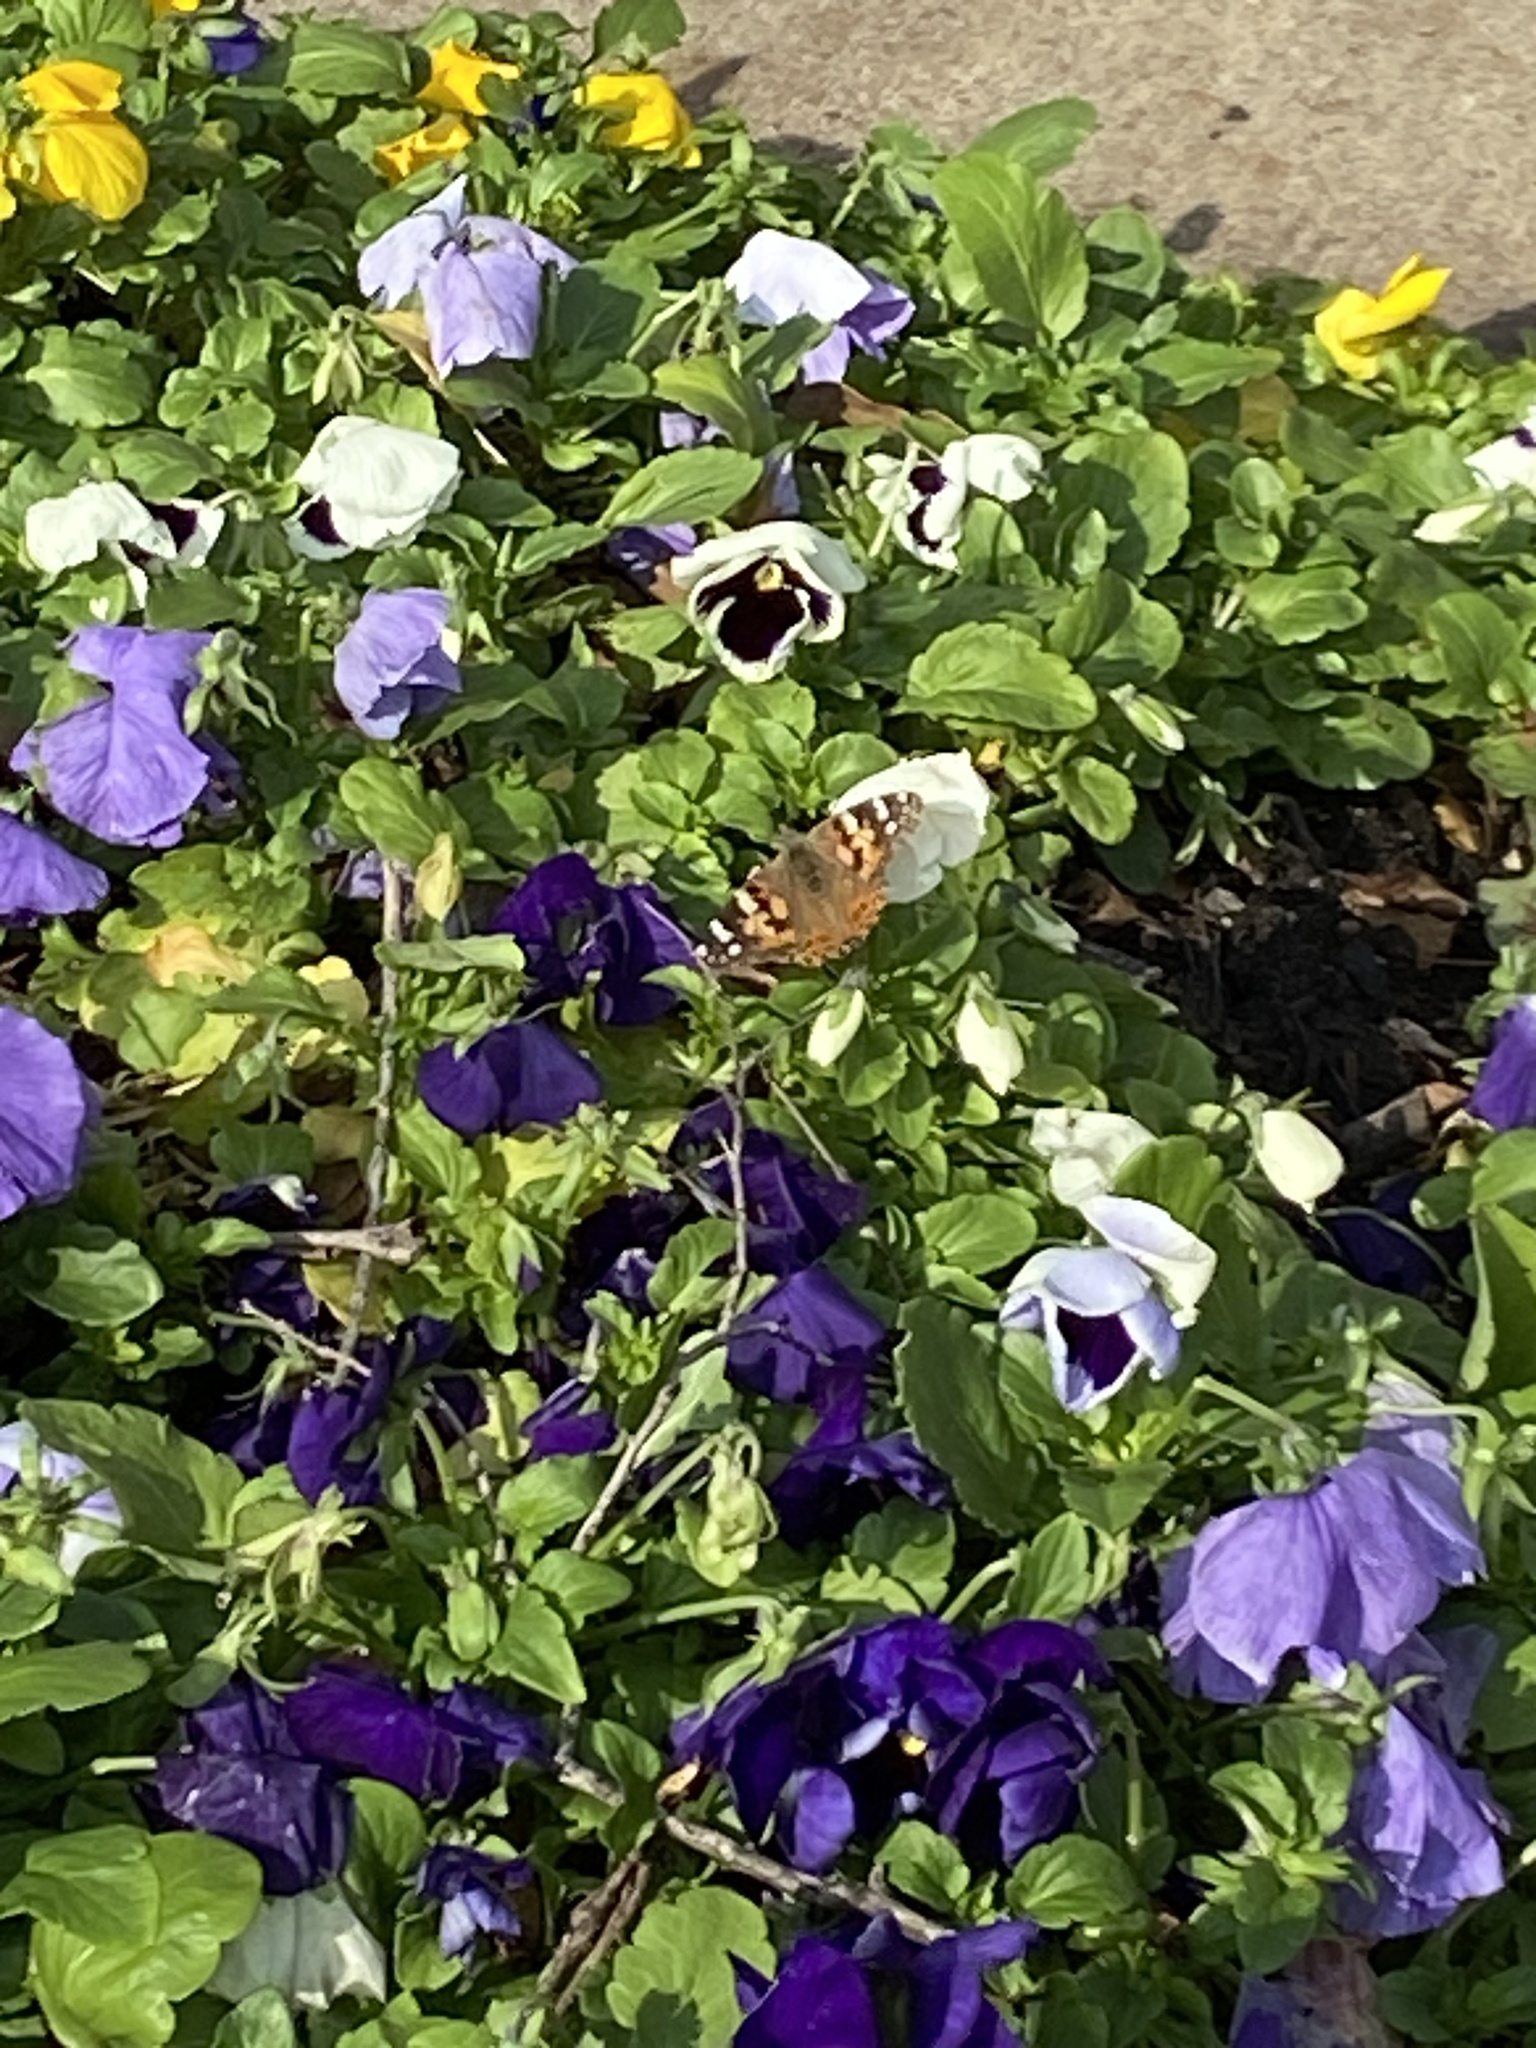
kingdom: Animalia
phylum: Arthropoda
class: Insecta
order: Lepidoptera
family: Nymphalidae
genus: Vanessa
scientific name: Vanessa cardui
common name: Painted lady
